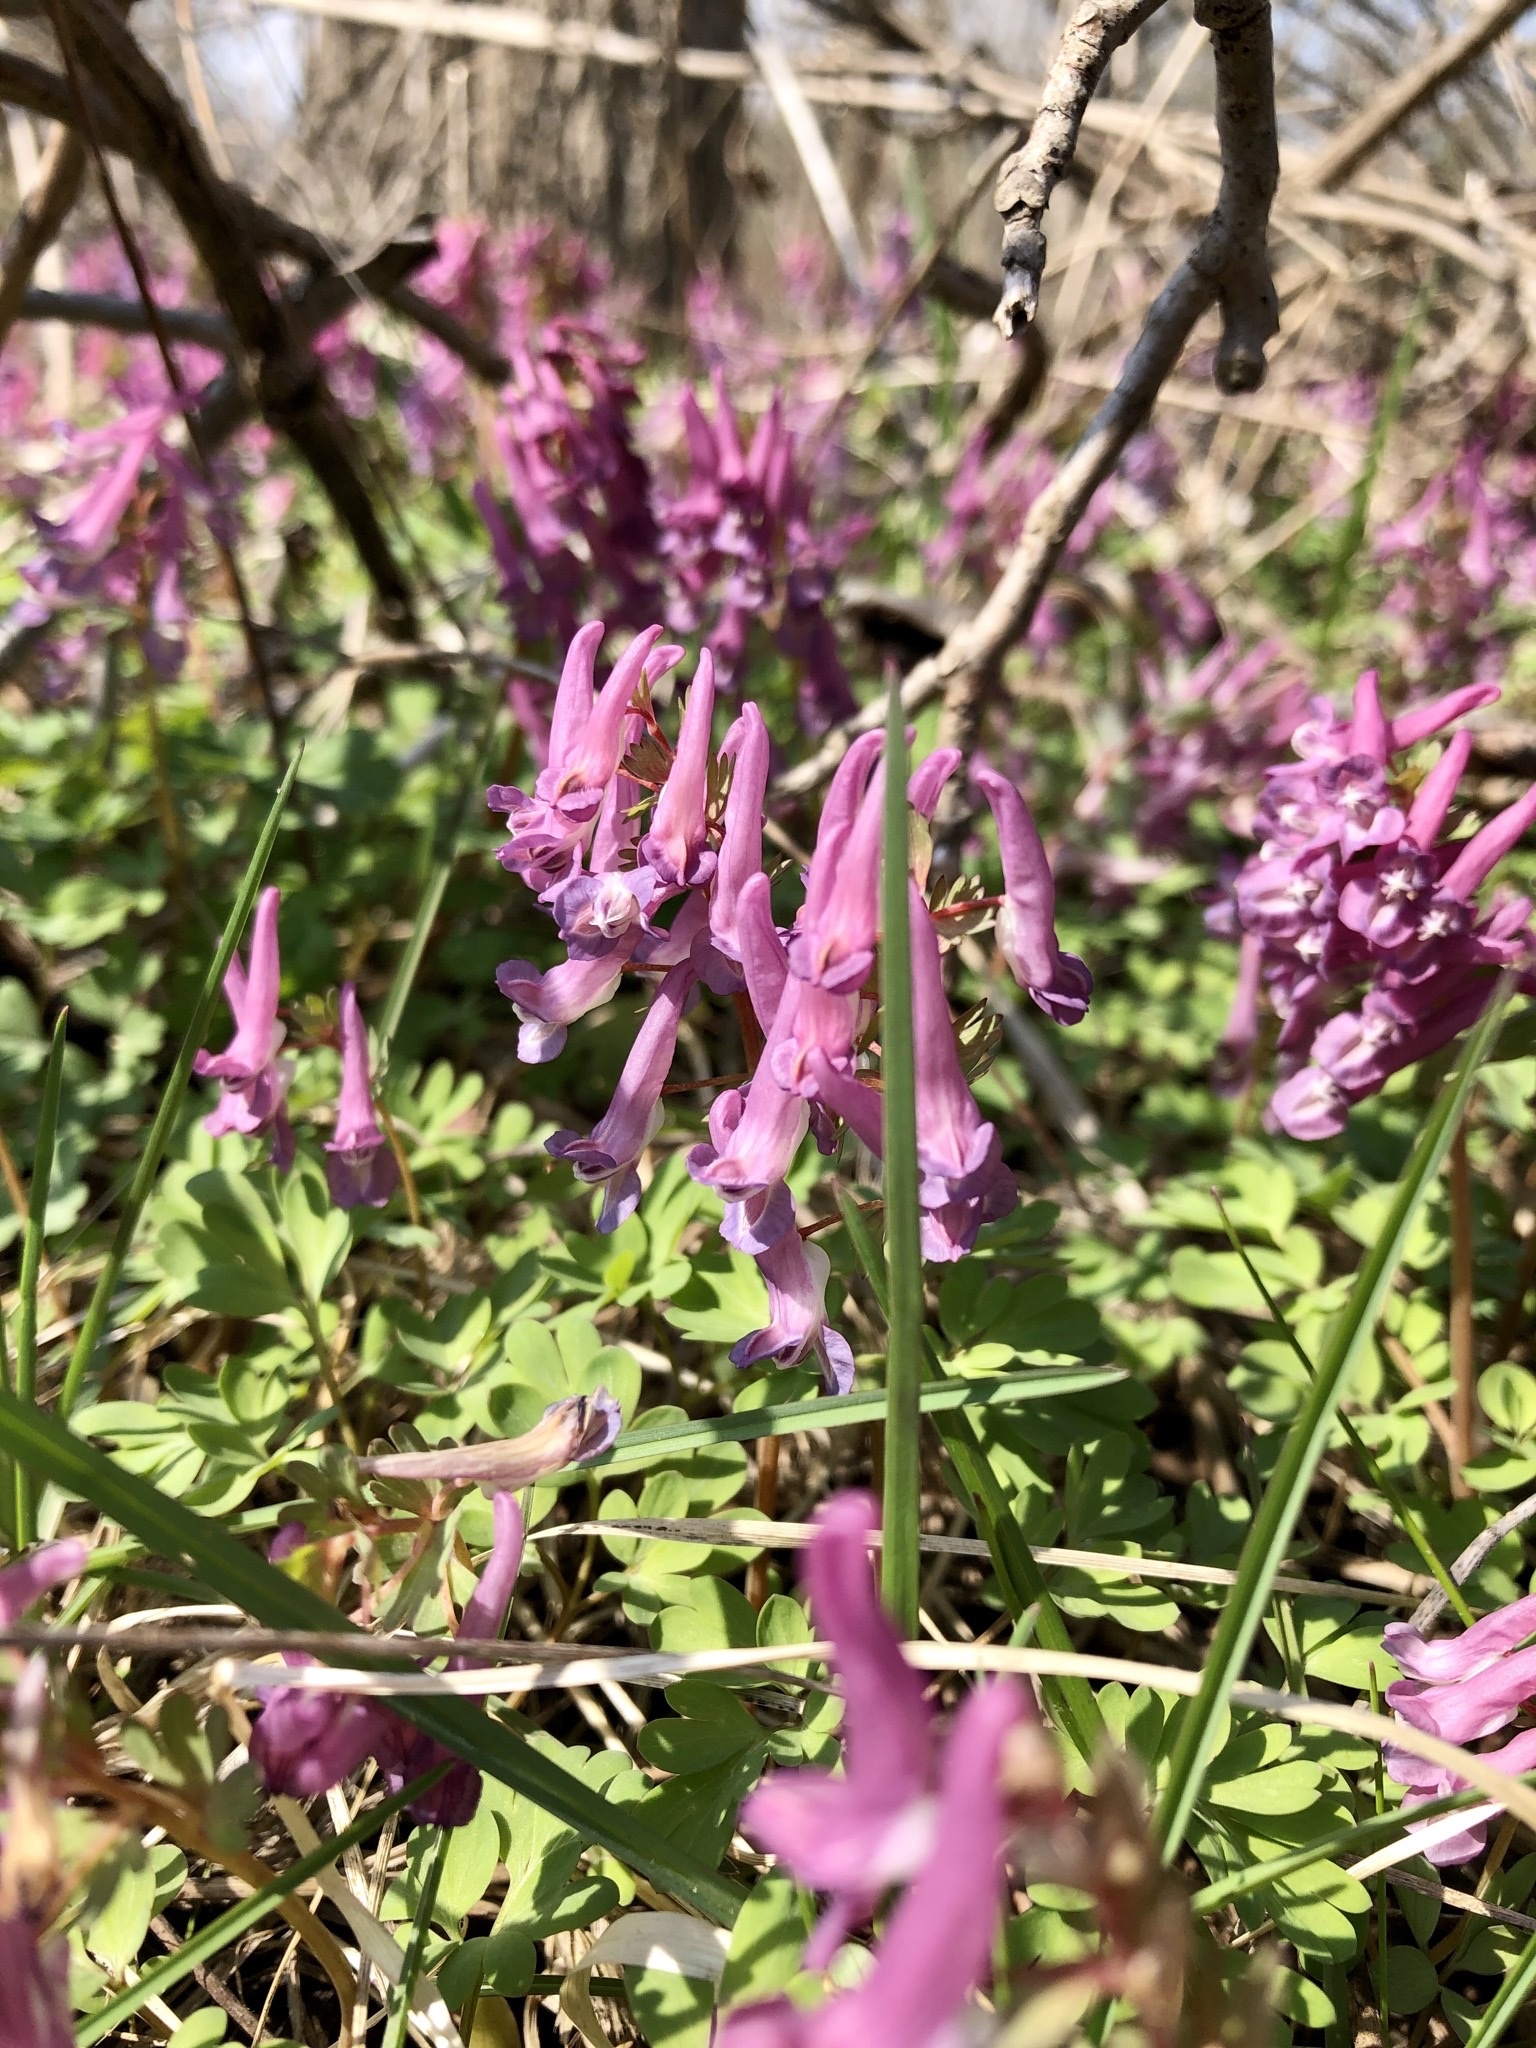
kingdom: Plantae
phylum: Tracheophyta
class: Magnoliopsida
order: Ranunculales
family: Papaveraceae
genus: Corydalis
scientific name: Corydalis solida
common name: Bird-in-a-bush
